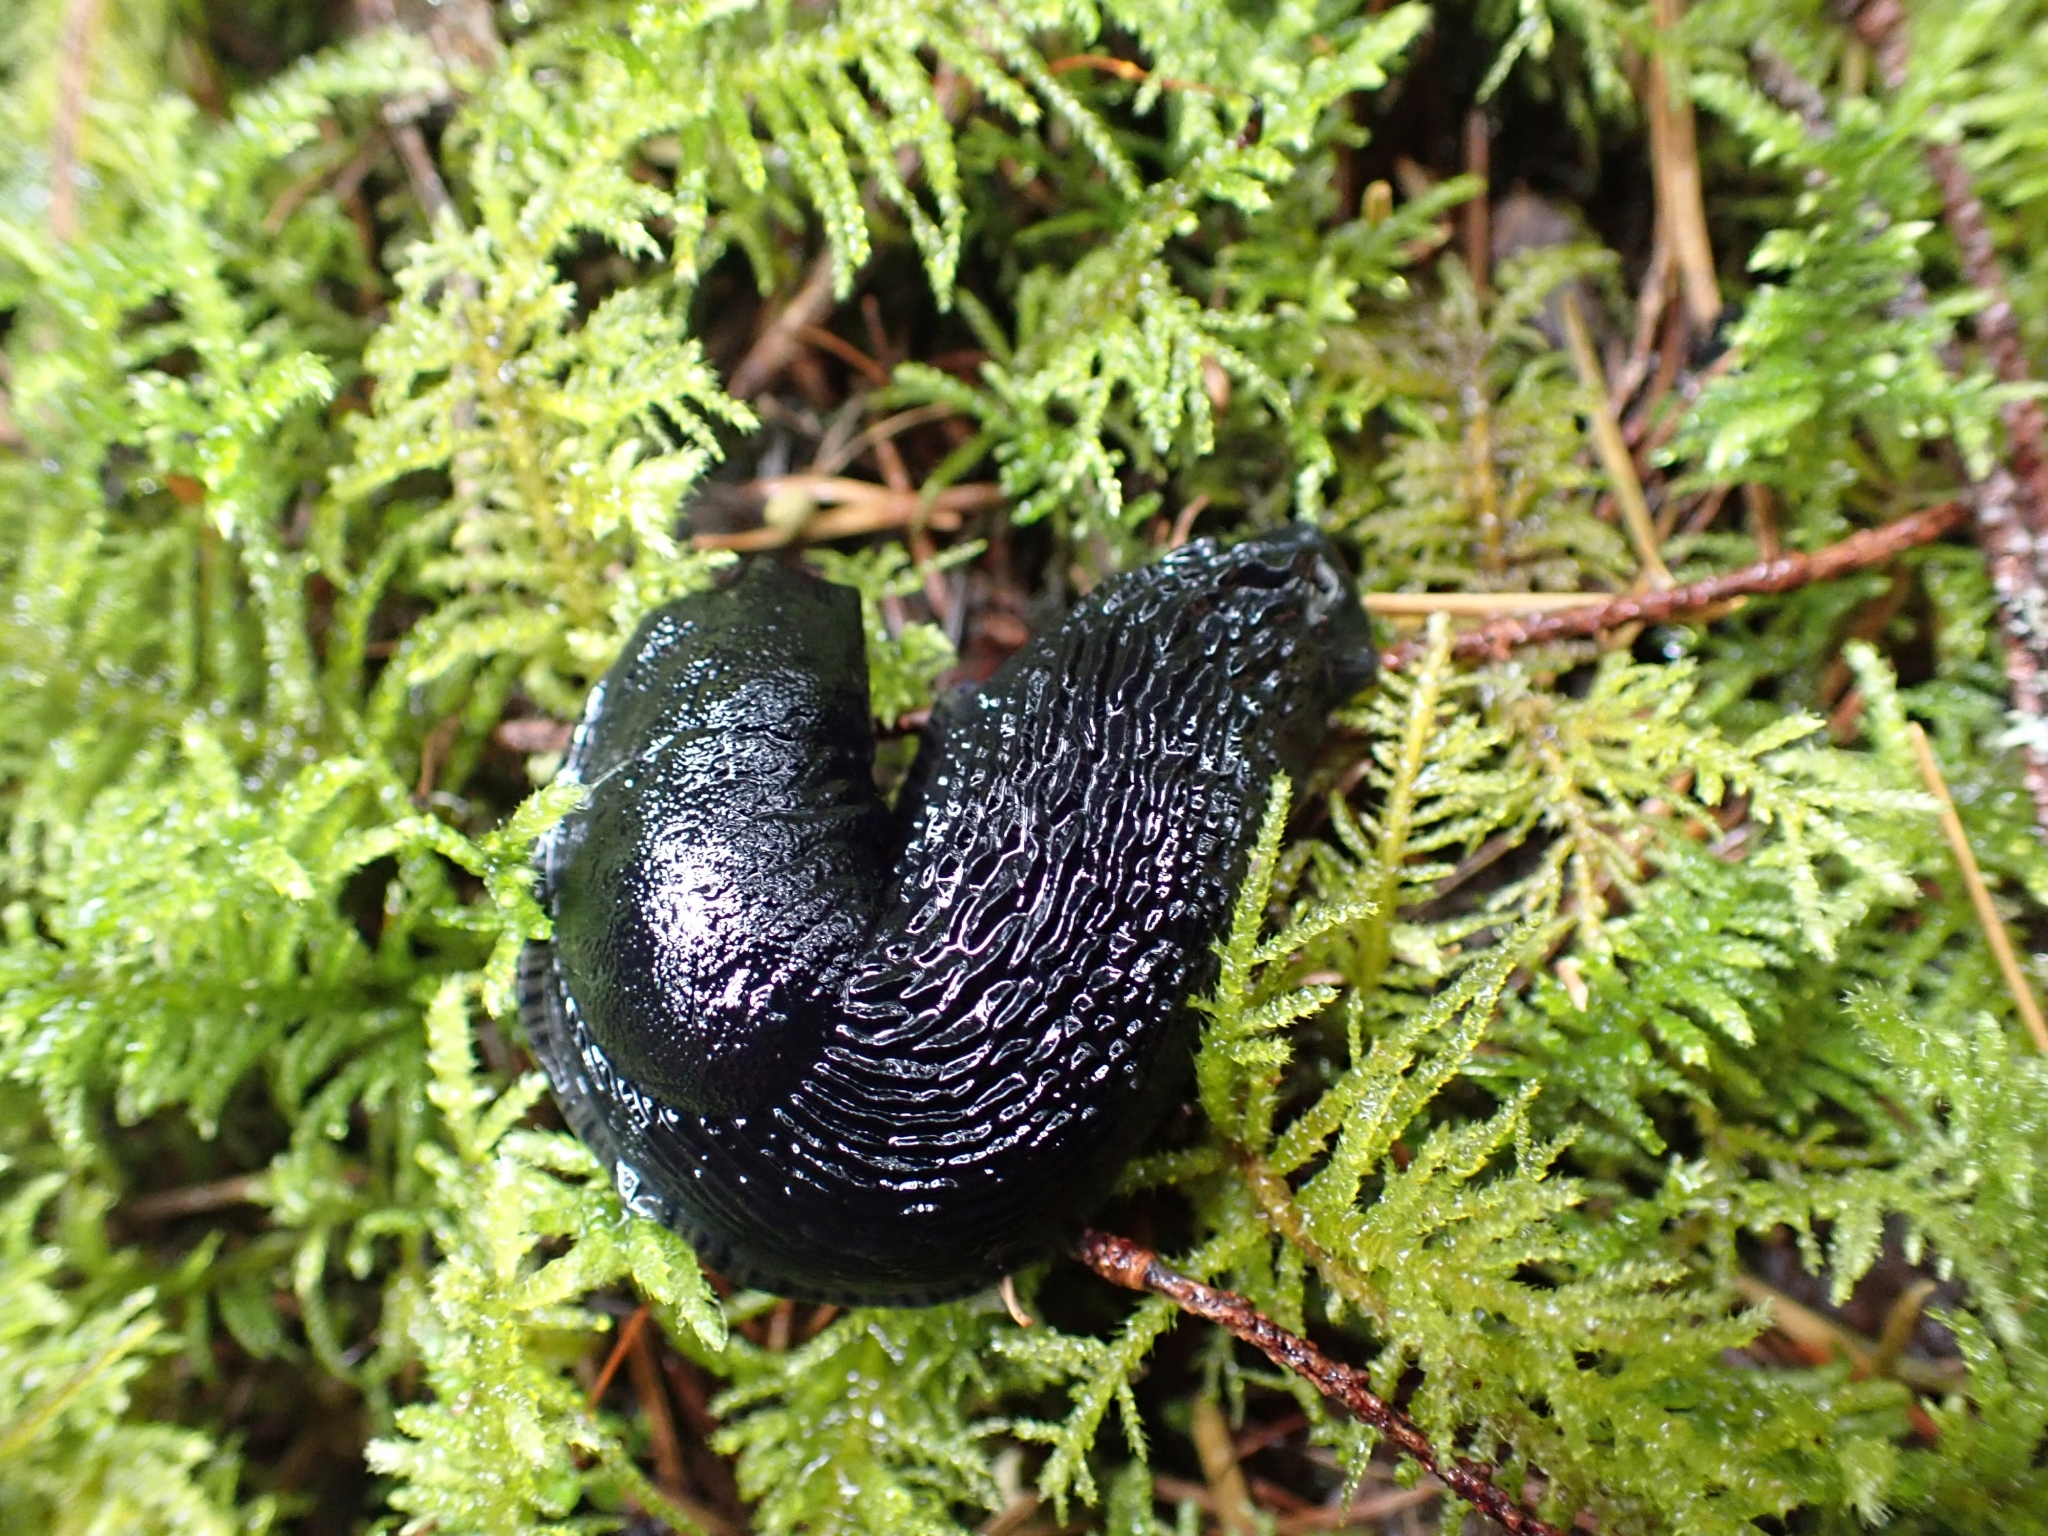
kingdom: Animalia
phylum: Mollusca
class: Gastropoda
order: Stylommatophora
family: Arionidae
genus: Arion
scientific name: Arion
